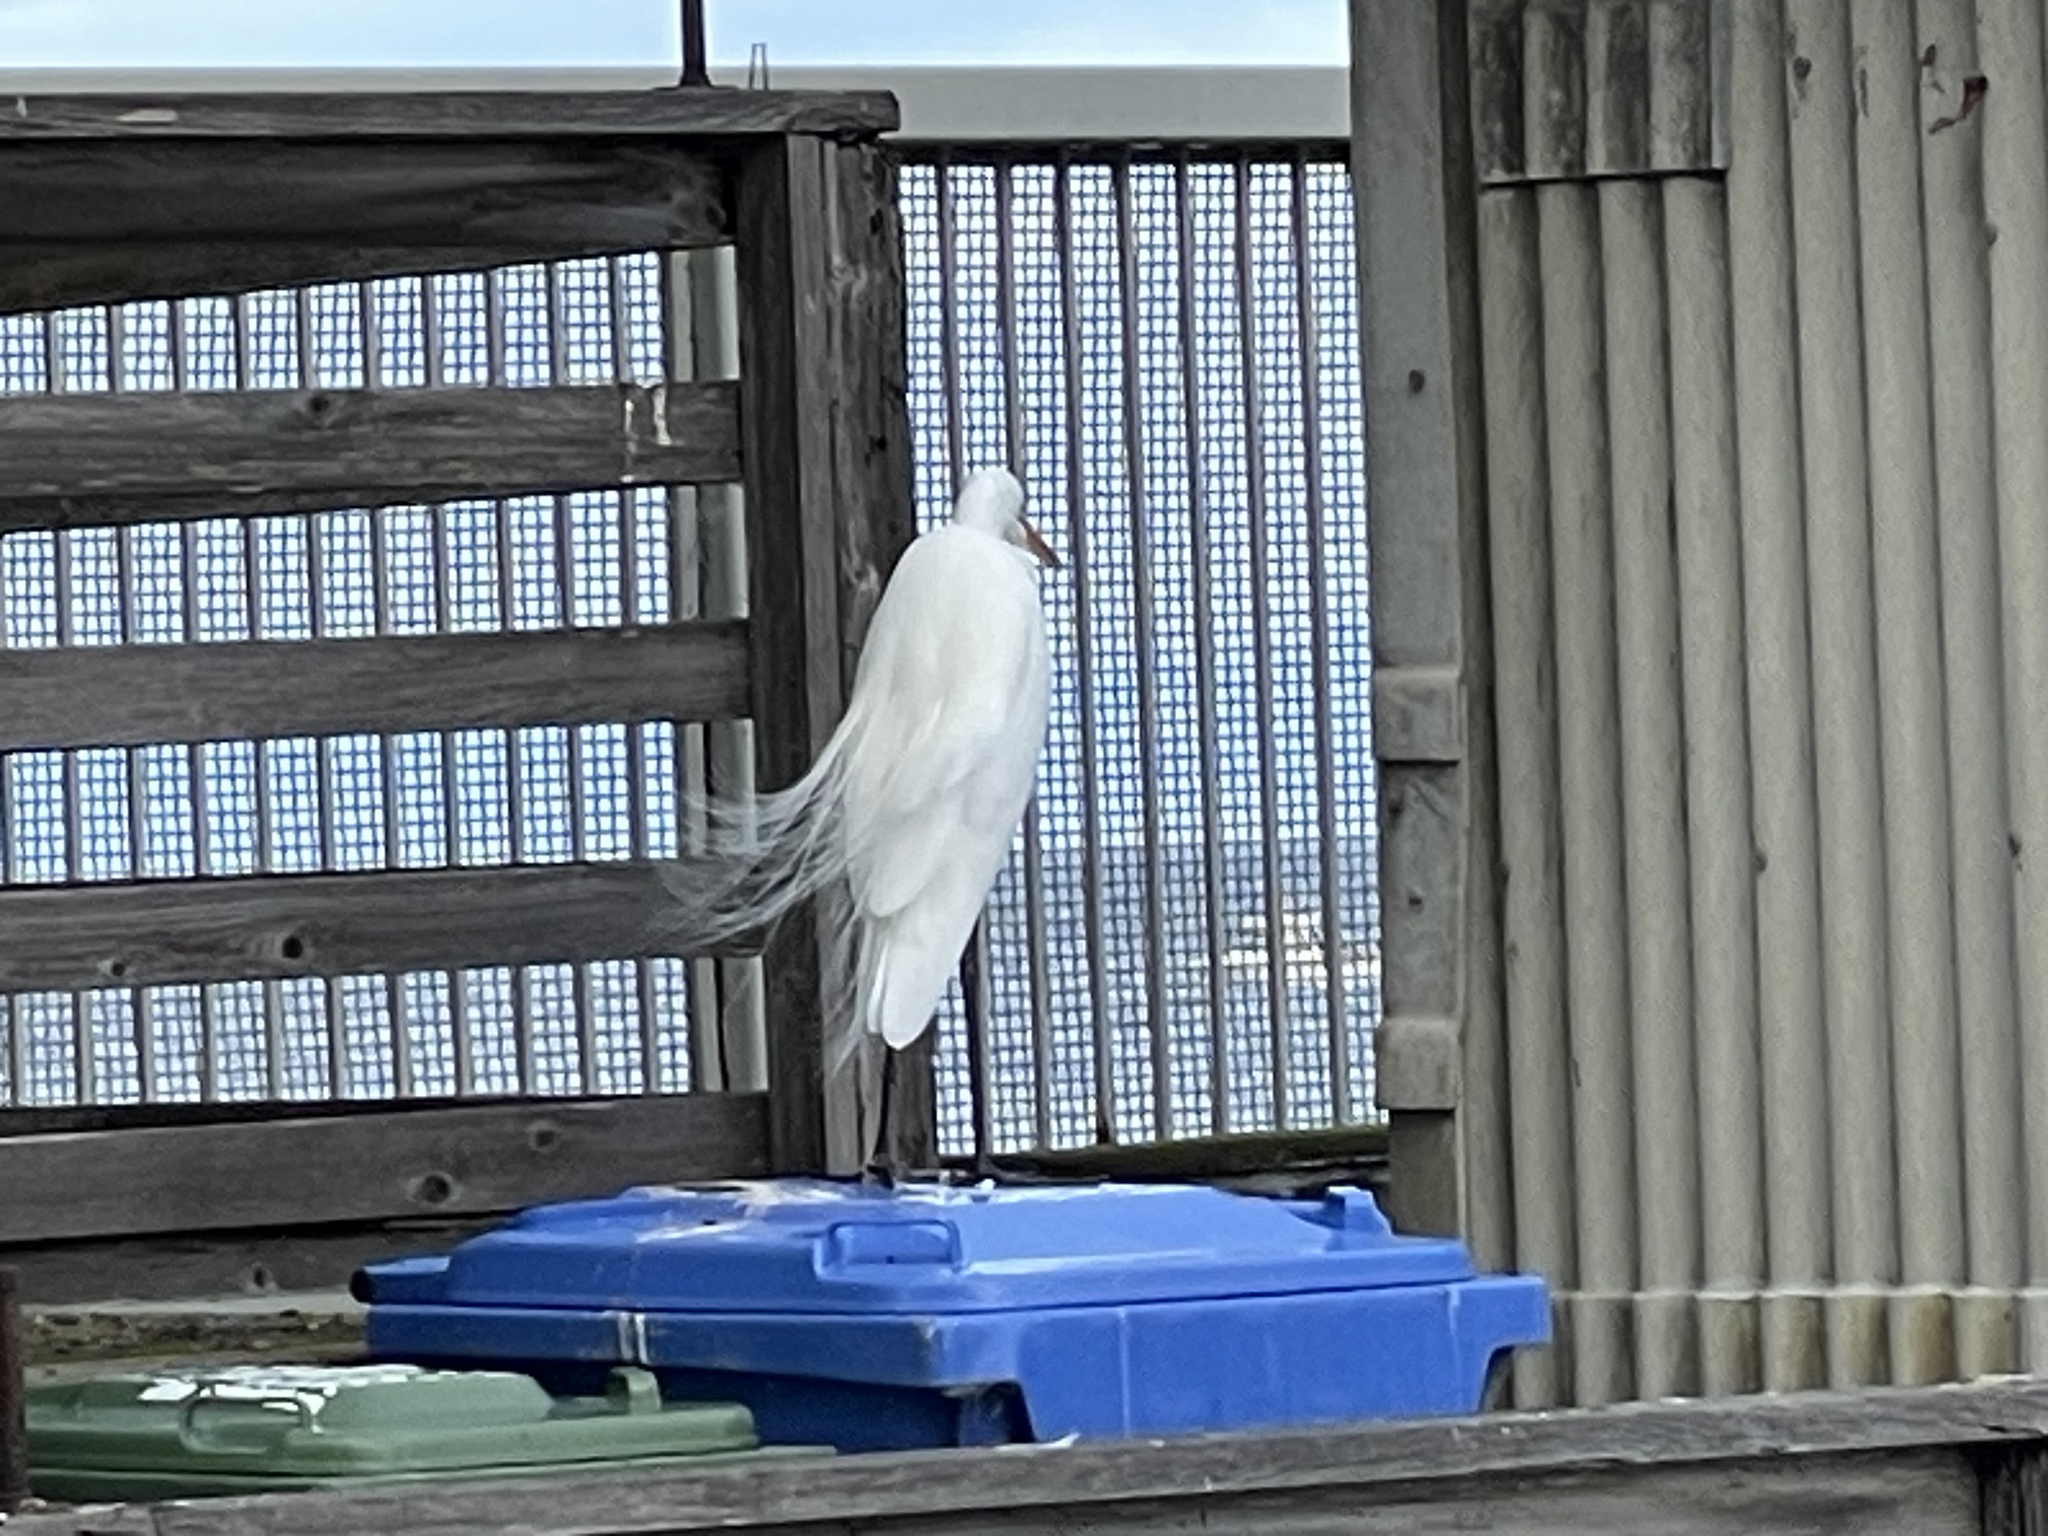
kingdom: Animalia
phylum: Chordata
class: Aves
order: Pelecaniformes
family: Ardeidae
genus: Ardea
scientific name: Ardea alba
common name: Great egret
